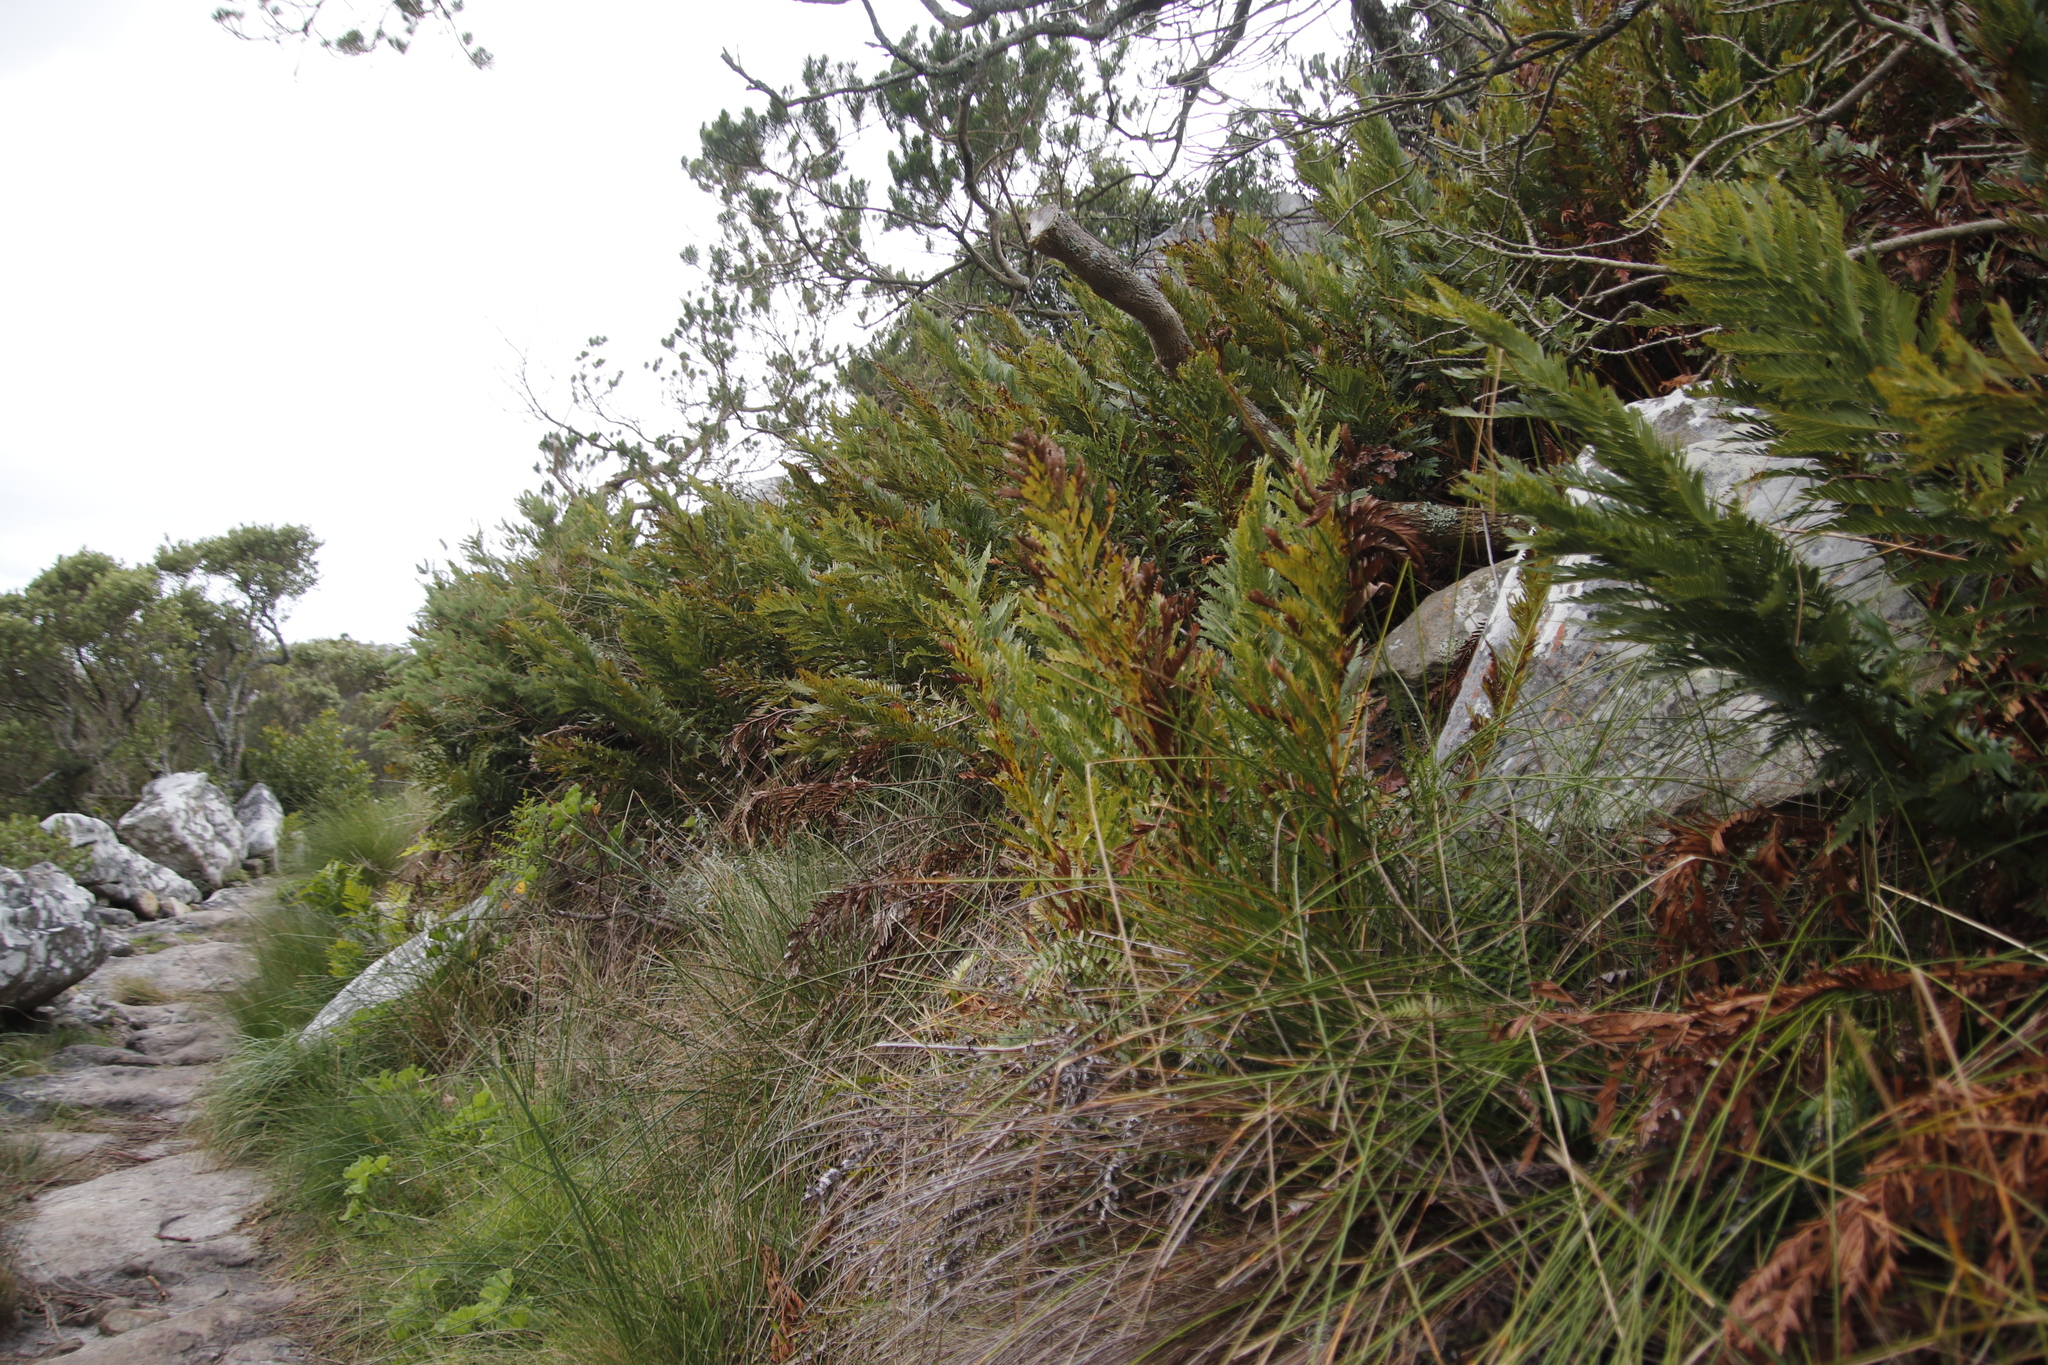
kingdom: Plantae
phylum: Tracheophyta
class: Polypodiopsida
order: Osmundales
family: Osmundaceae
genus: Todea
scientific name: Todea barbara
